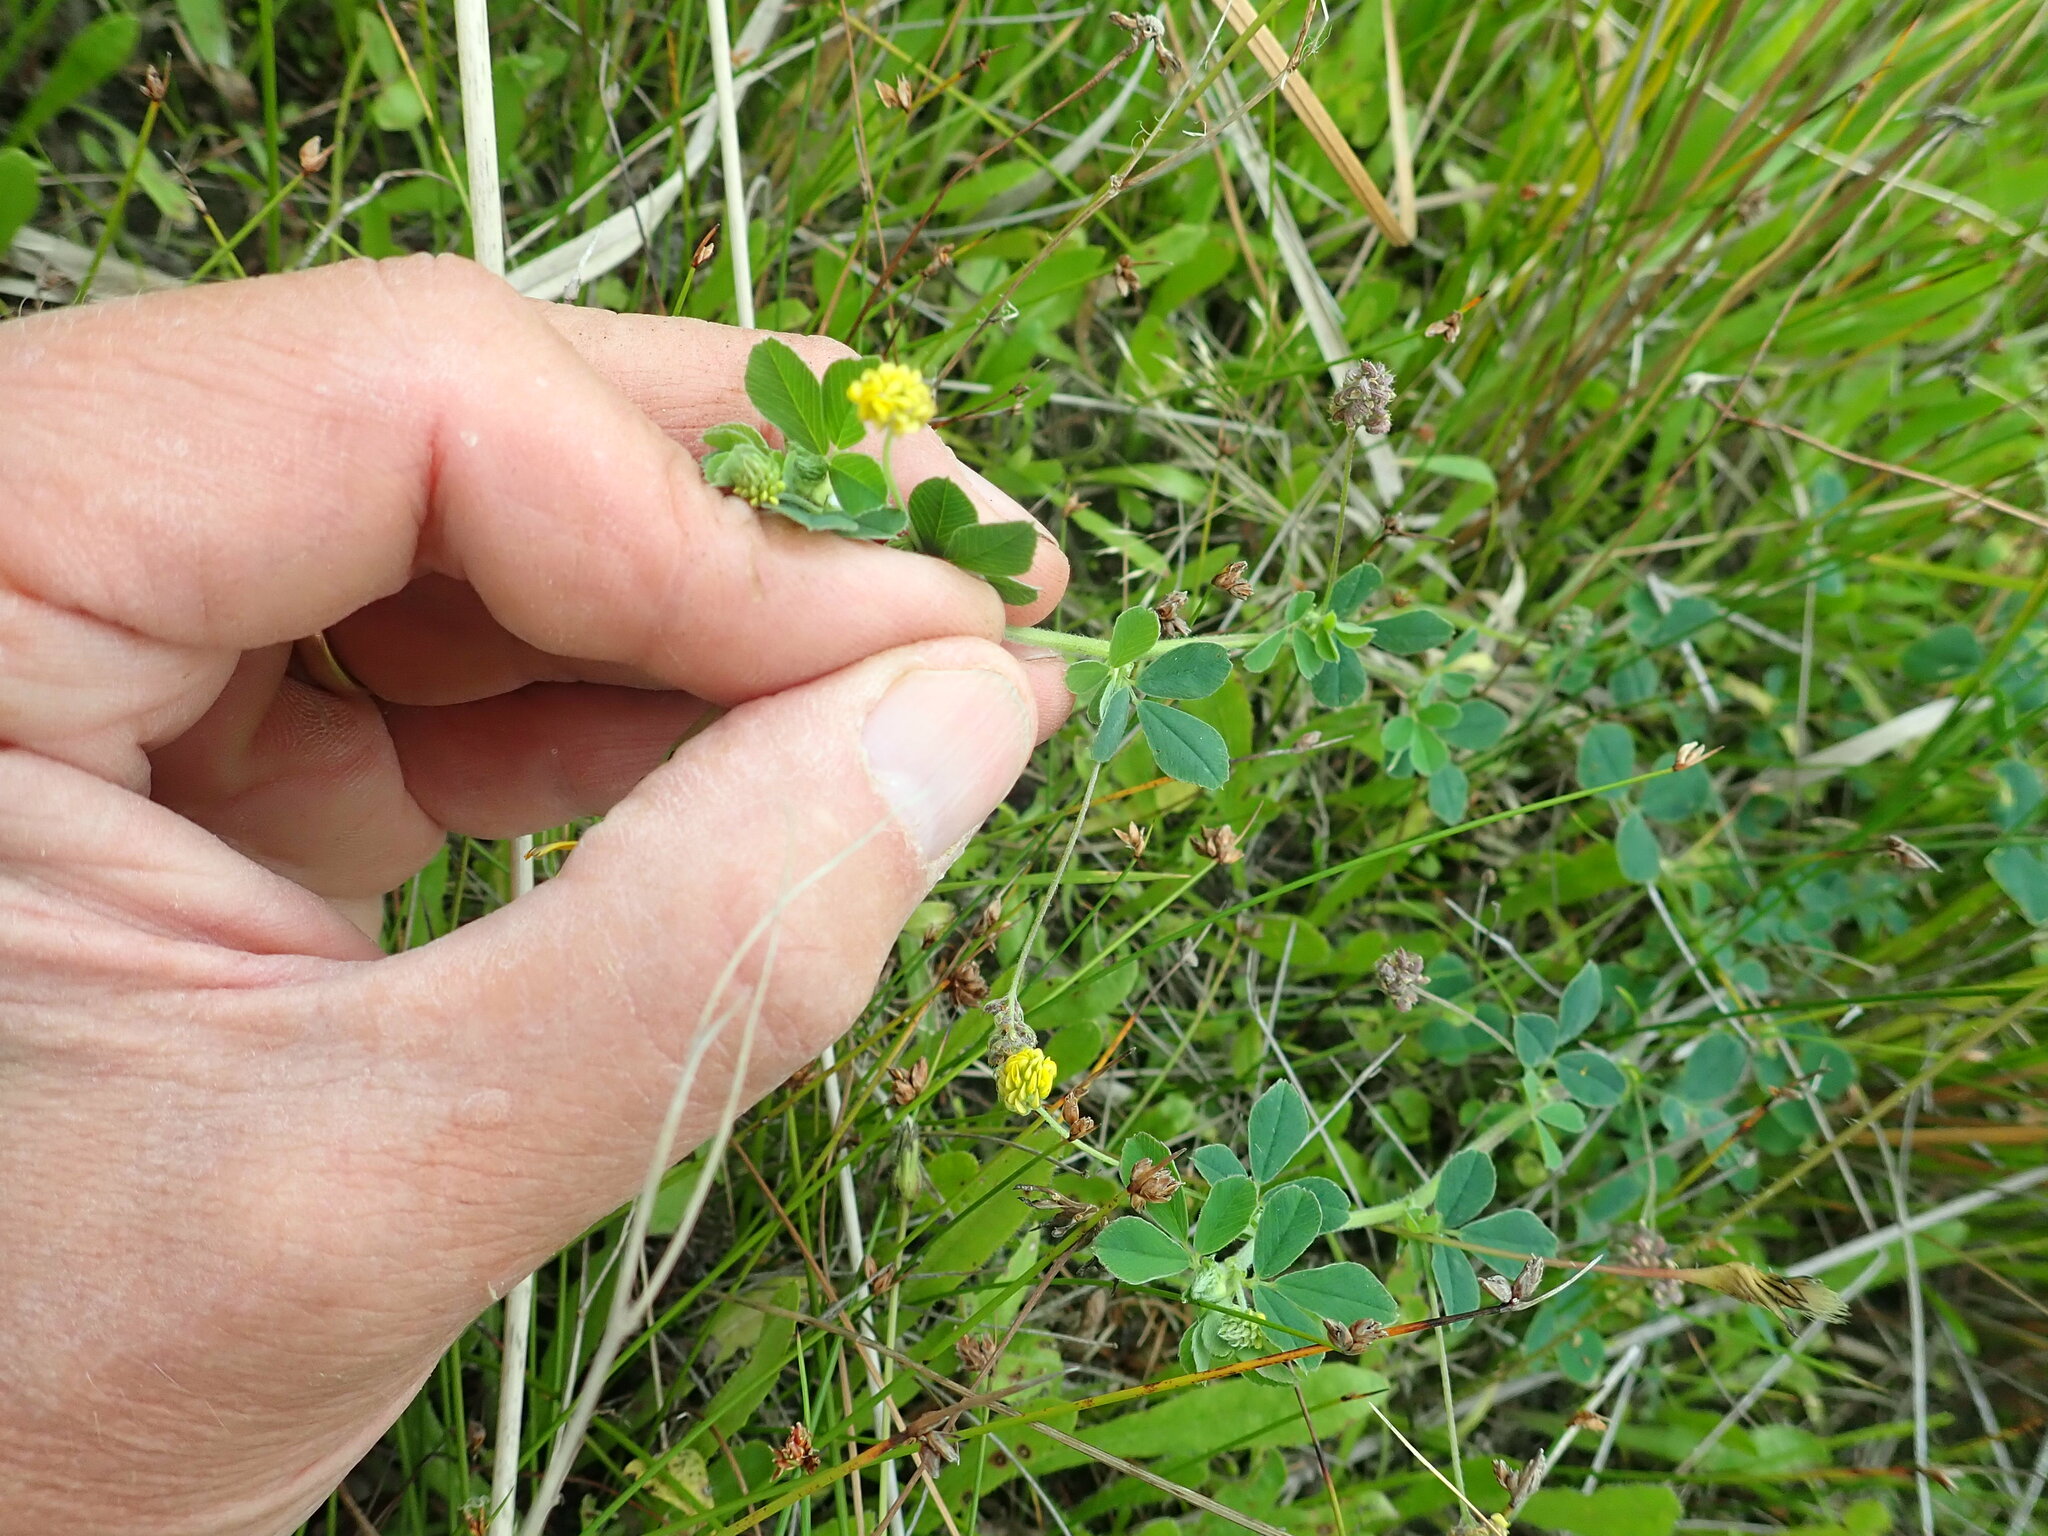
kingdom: Plantae
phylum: Tracheophyta
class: Magnoliopsida
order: Fabales
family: Fabaceae
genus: Medicago
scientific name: Medicago lupulina
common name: Black medick
